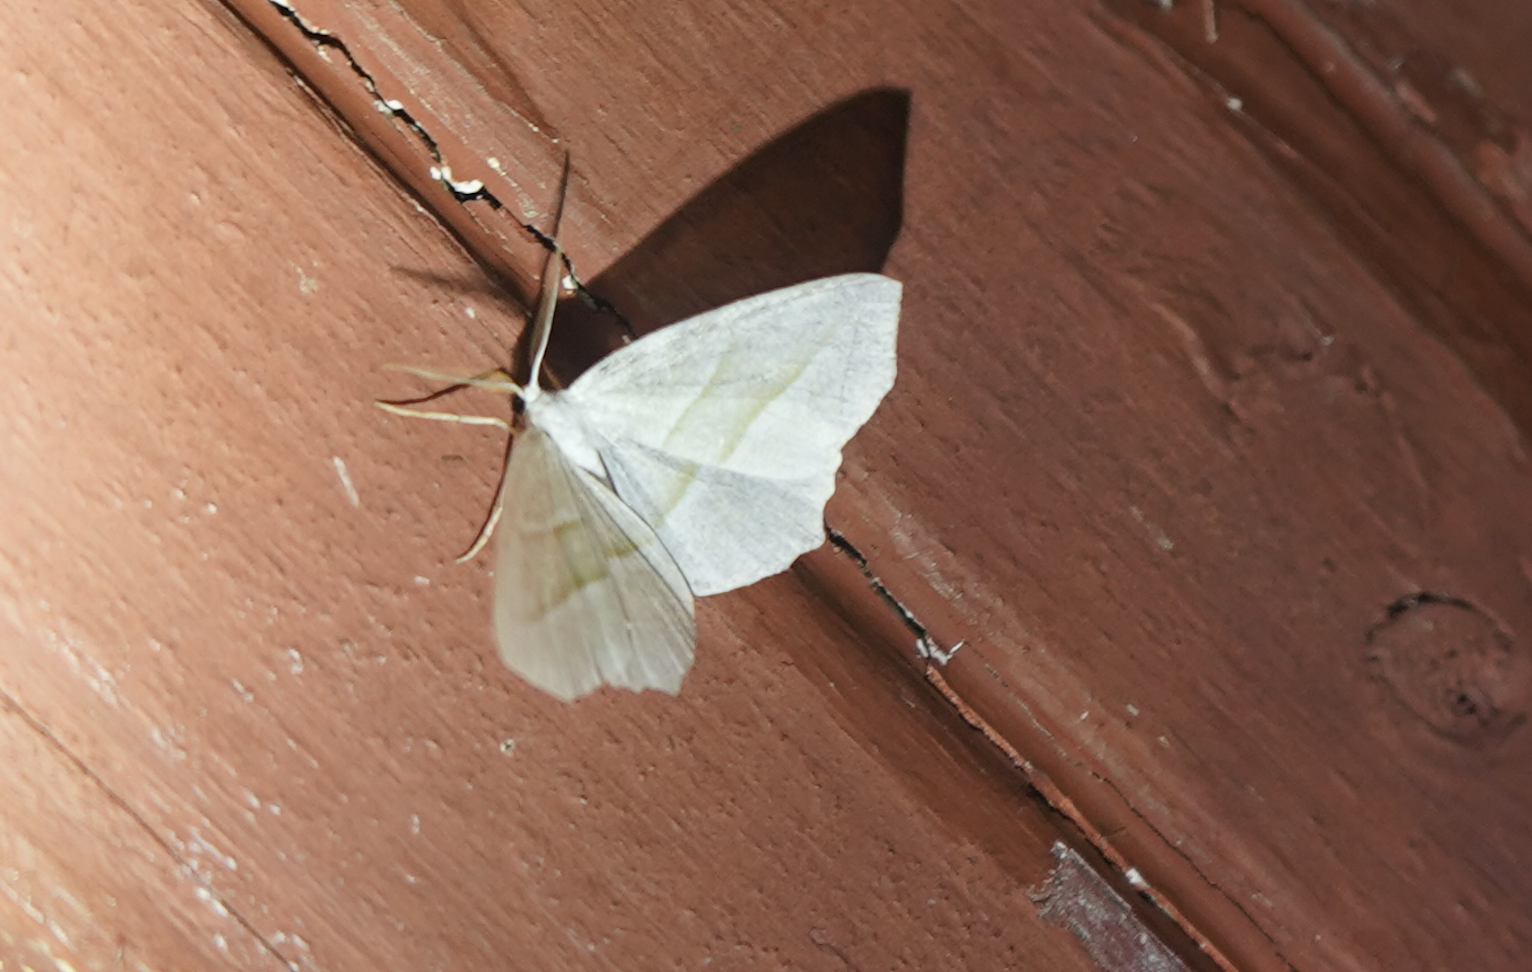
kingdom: Animalia
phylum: Arthropoda
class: Insecta
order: Lepidoptera
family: Geometridae
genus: Campaea
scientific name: Campaea perlata
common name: Fringed looper
